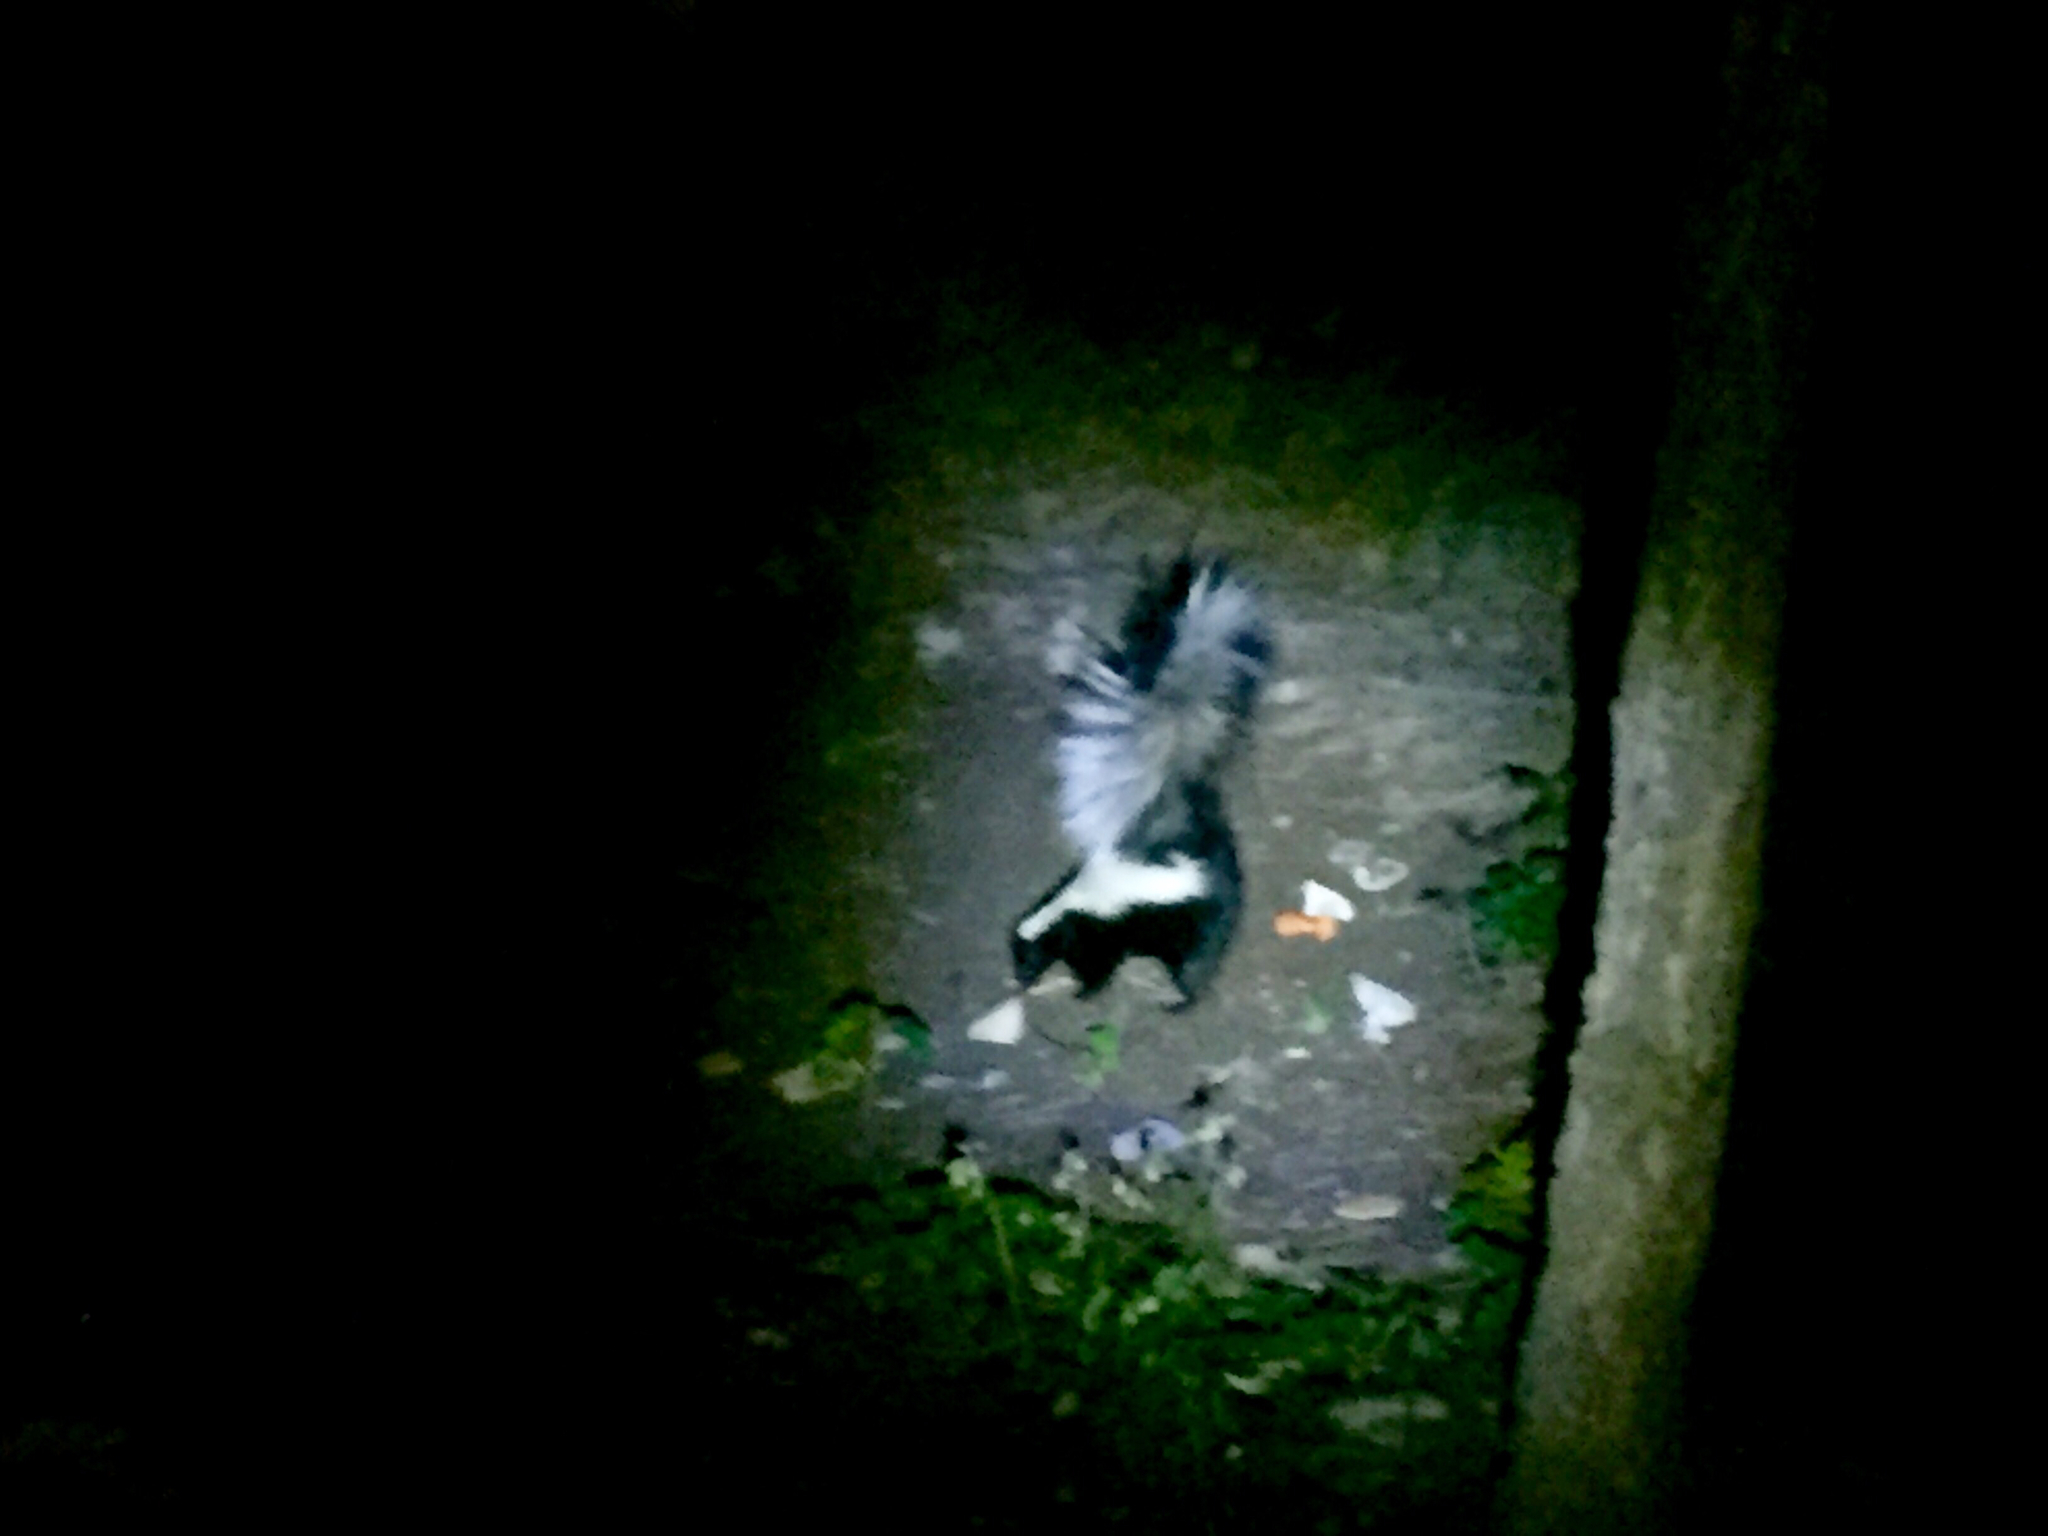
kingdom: Animalia
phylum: Chordata
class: Mammalia
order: Carnivora
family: Mephitidae
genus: Mephitis
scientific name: Mephitis mephitis
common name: Striped skunk
